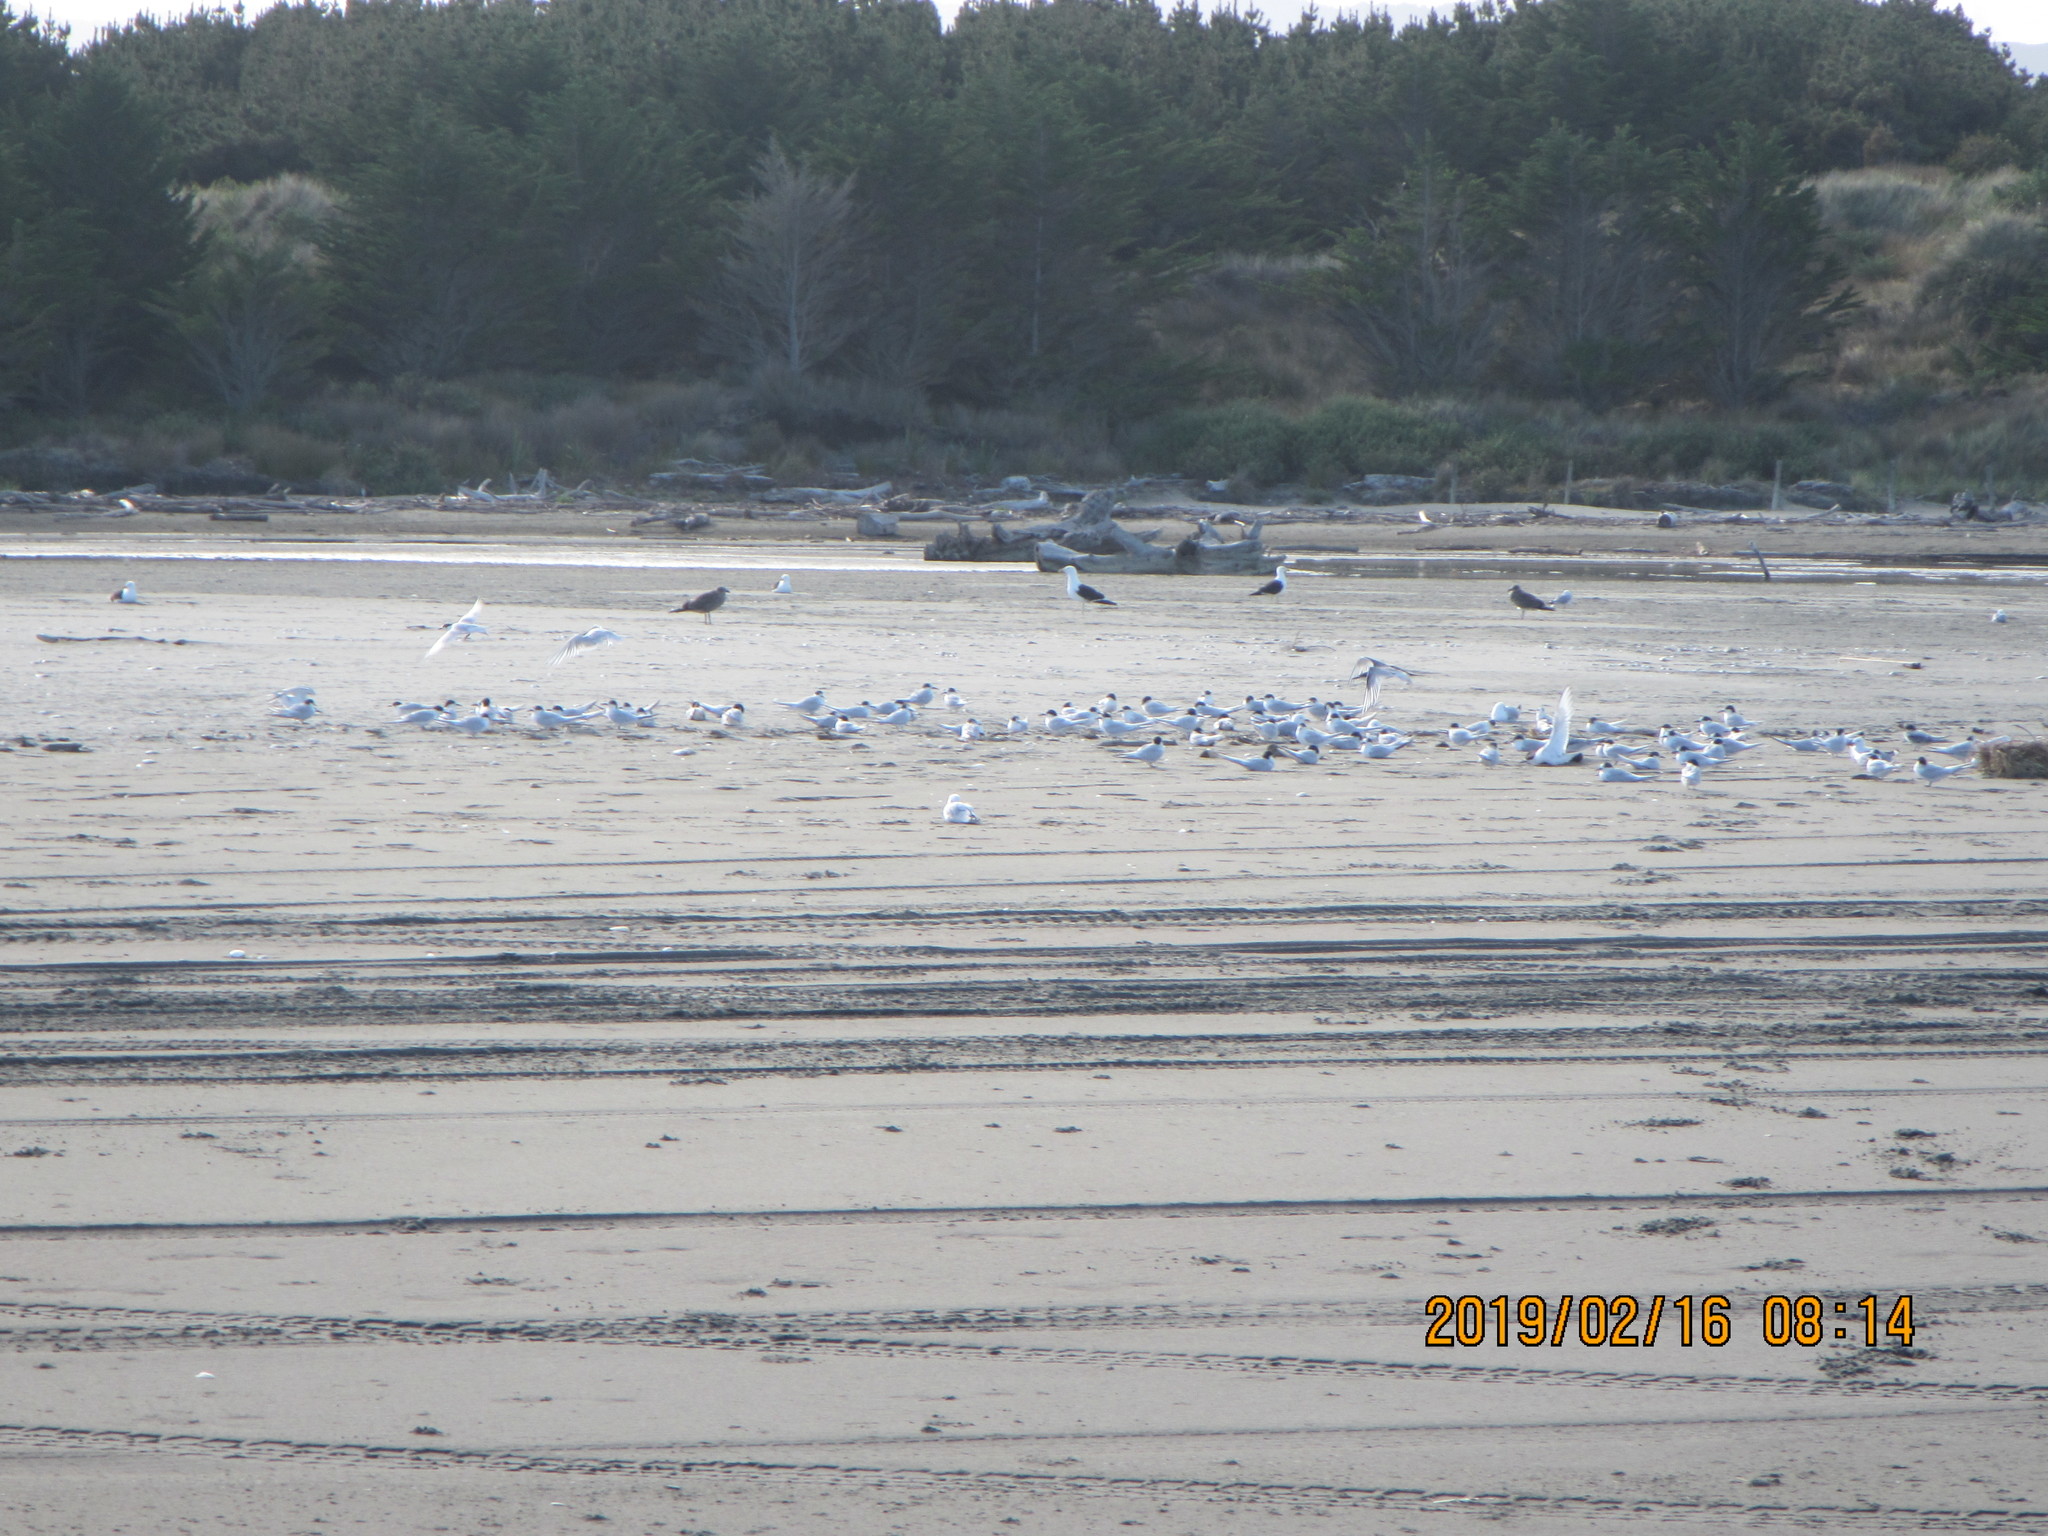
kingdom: Animalia
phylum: Chordata
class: Aves
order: Charadriiformes
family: Laridae
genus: Sterna
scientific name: Sterna striata
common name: White-fronted tern
